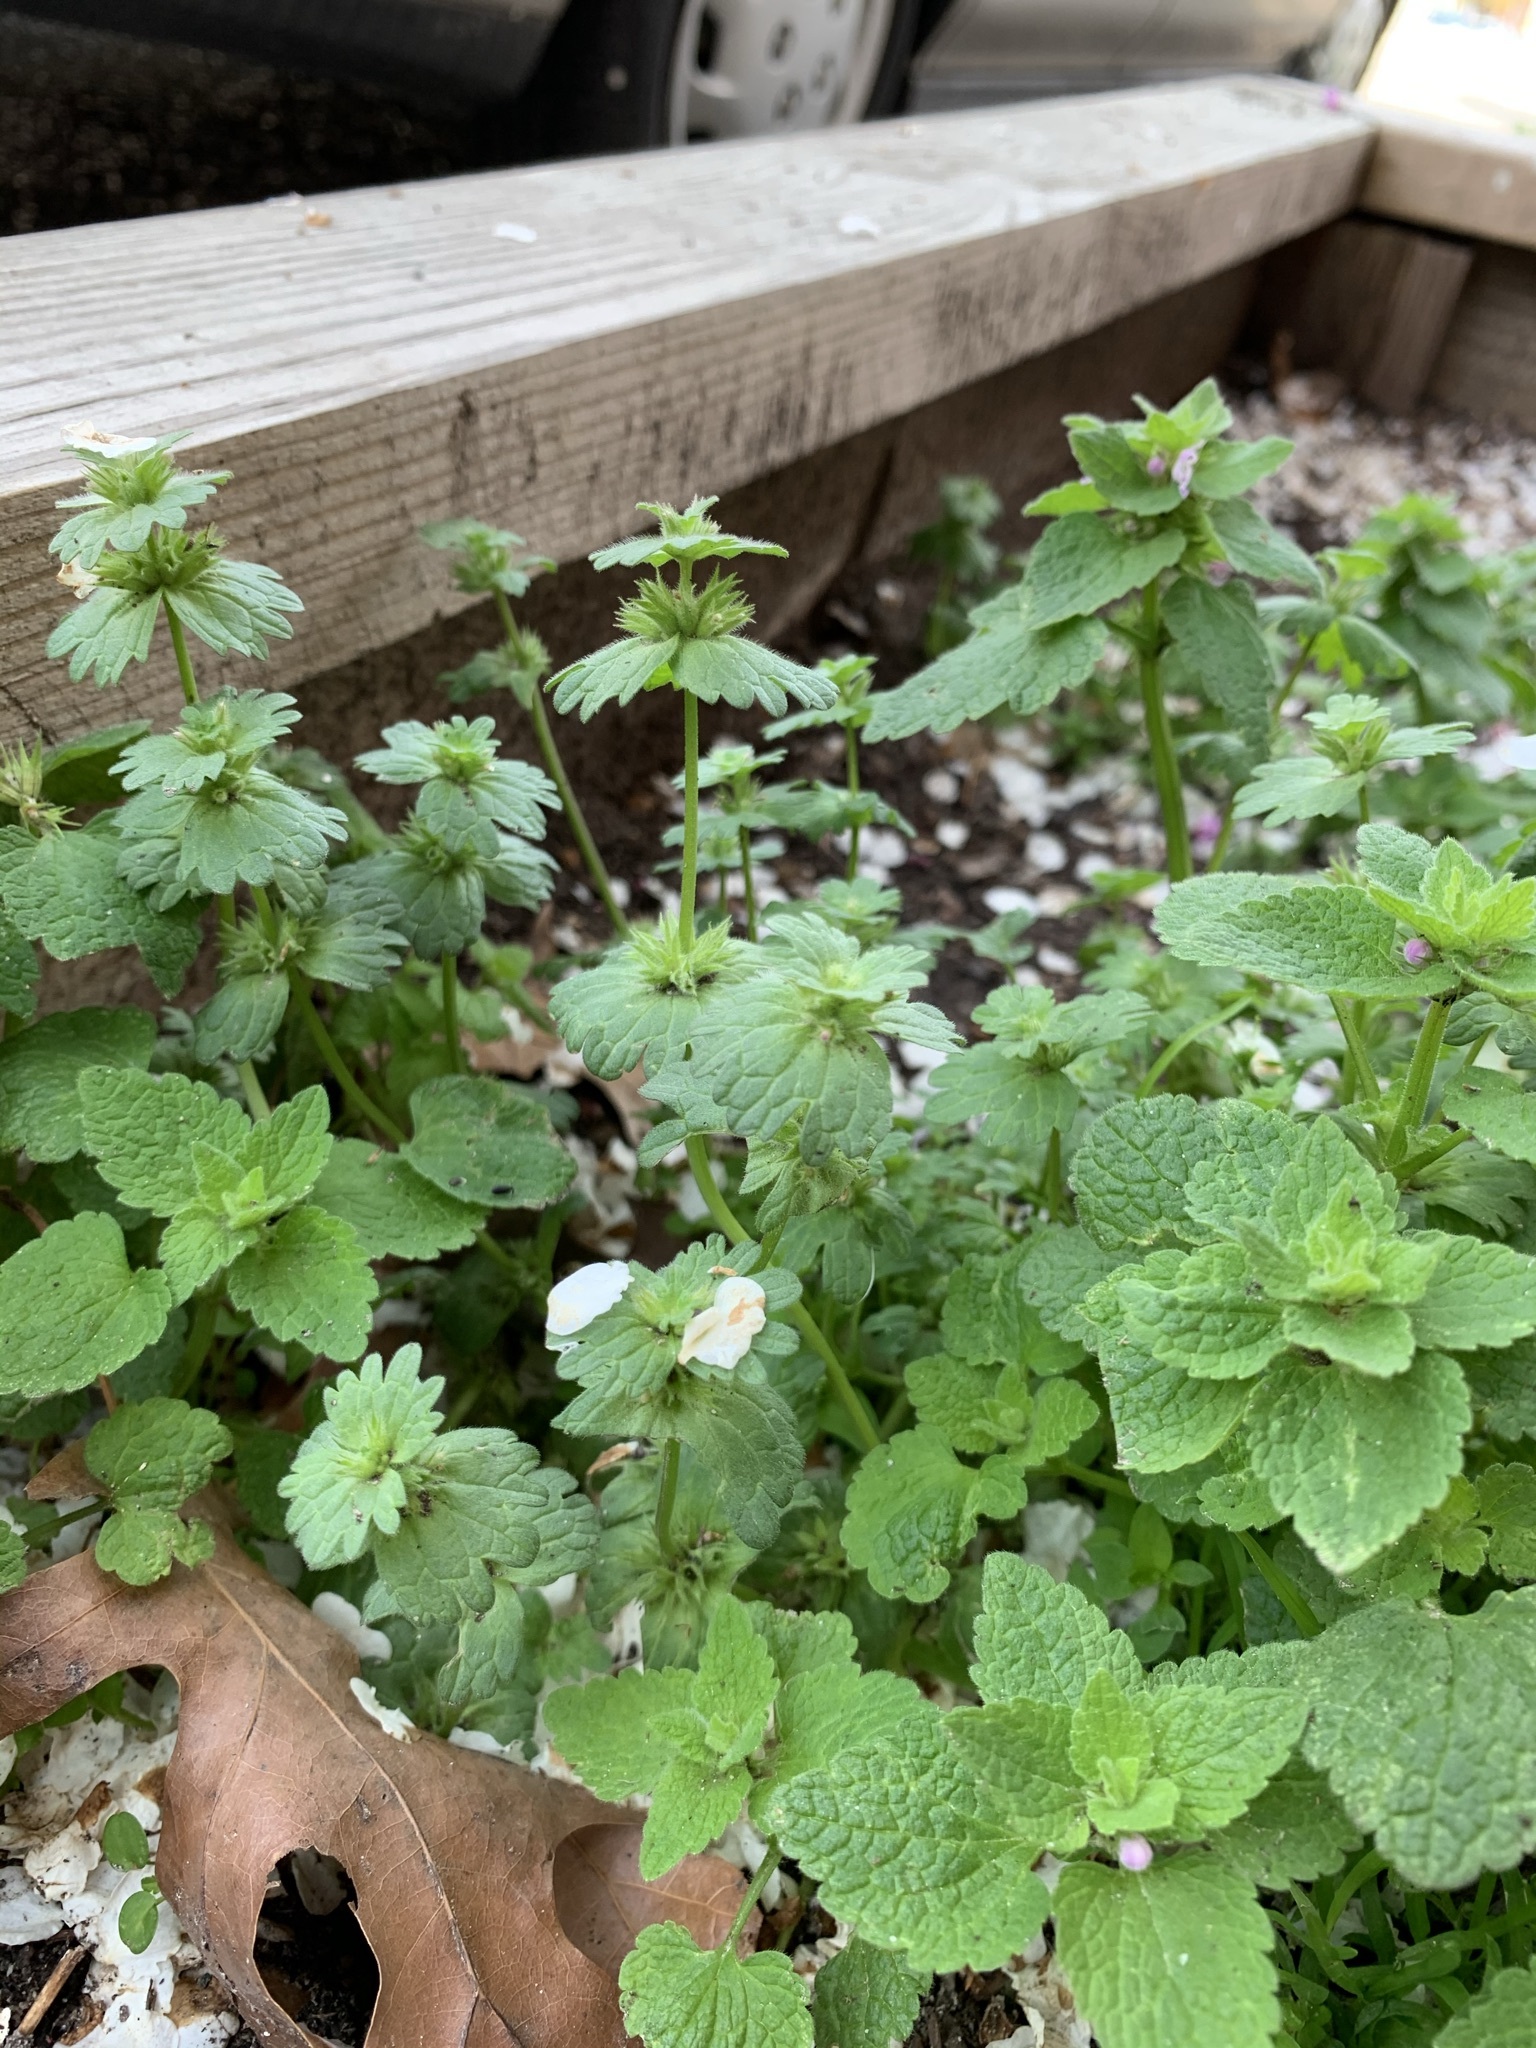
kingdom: Plantae
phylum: Tracheophyta
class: Magnoliopsida
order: Lamiales
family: Lamiaceae
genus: Lamium
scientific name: Lamium amplexicaule
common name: Henbit dead-nettle
